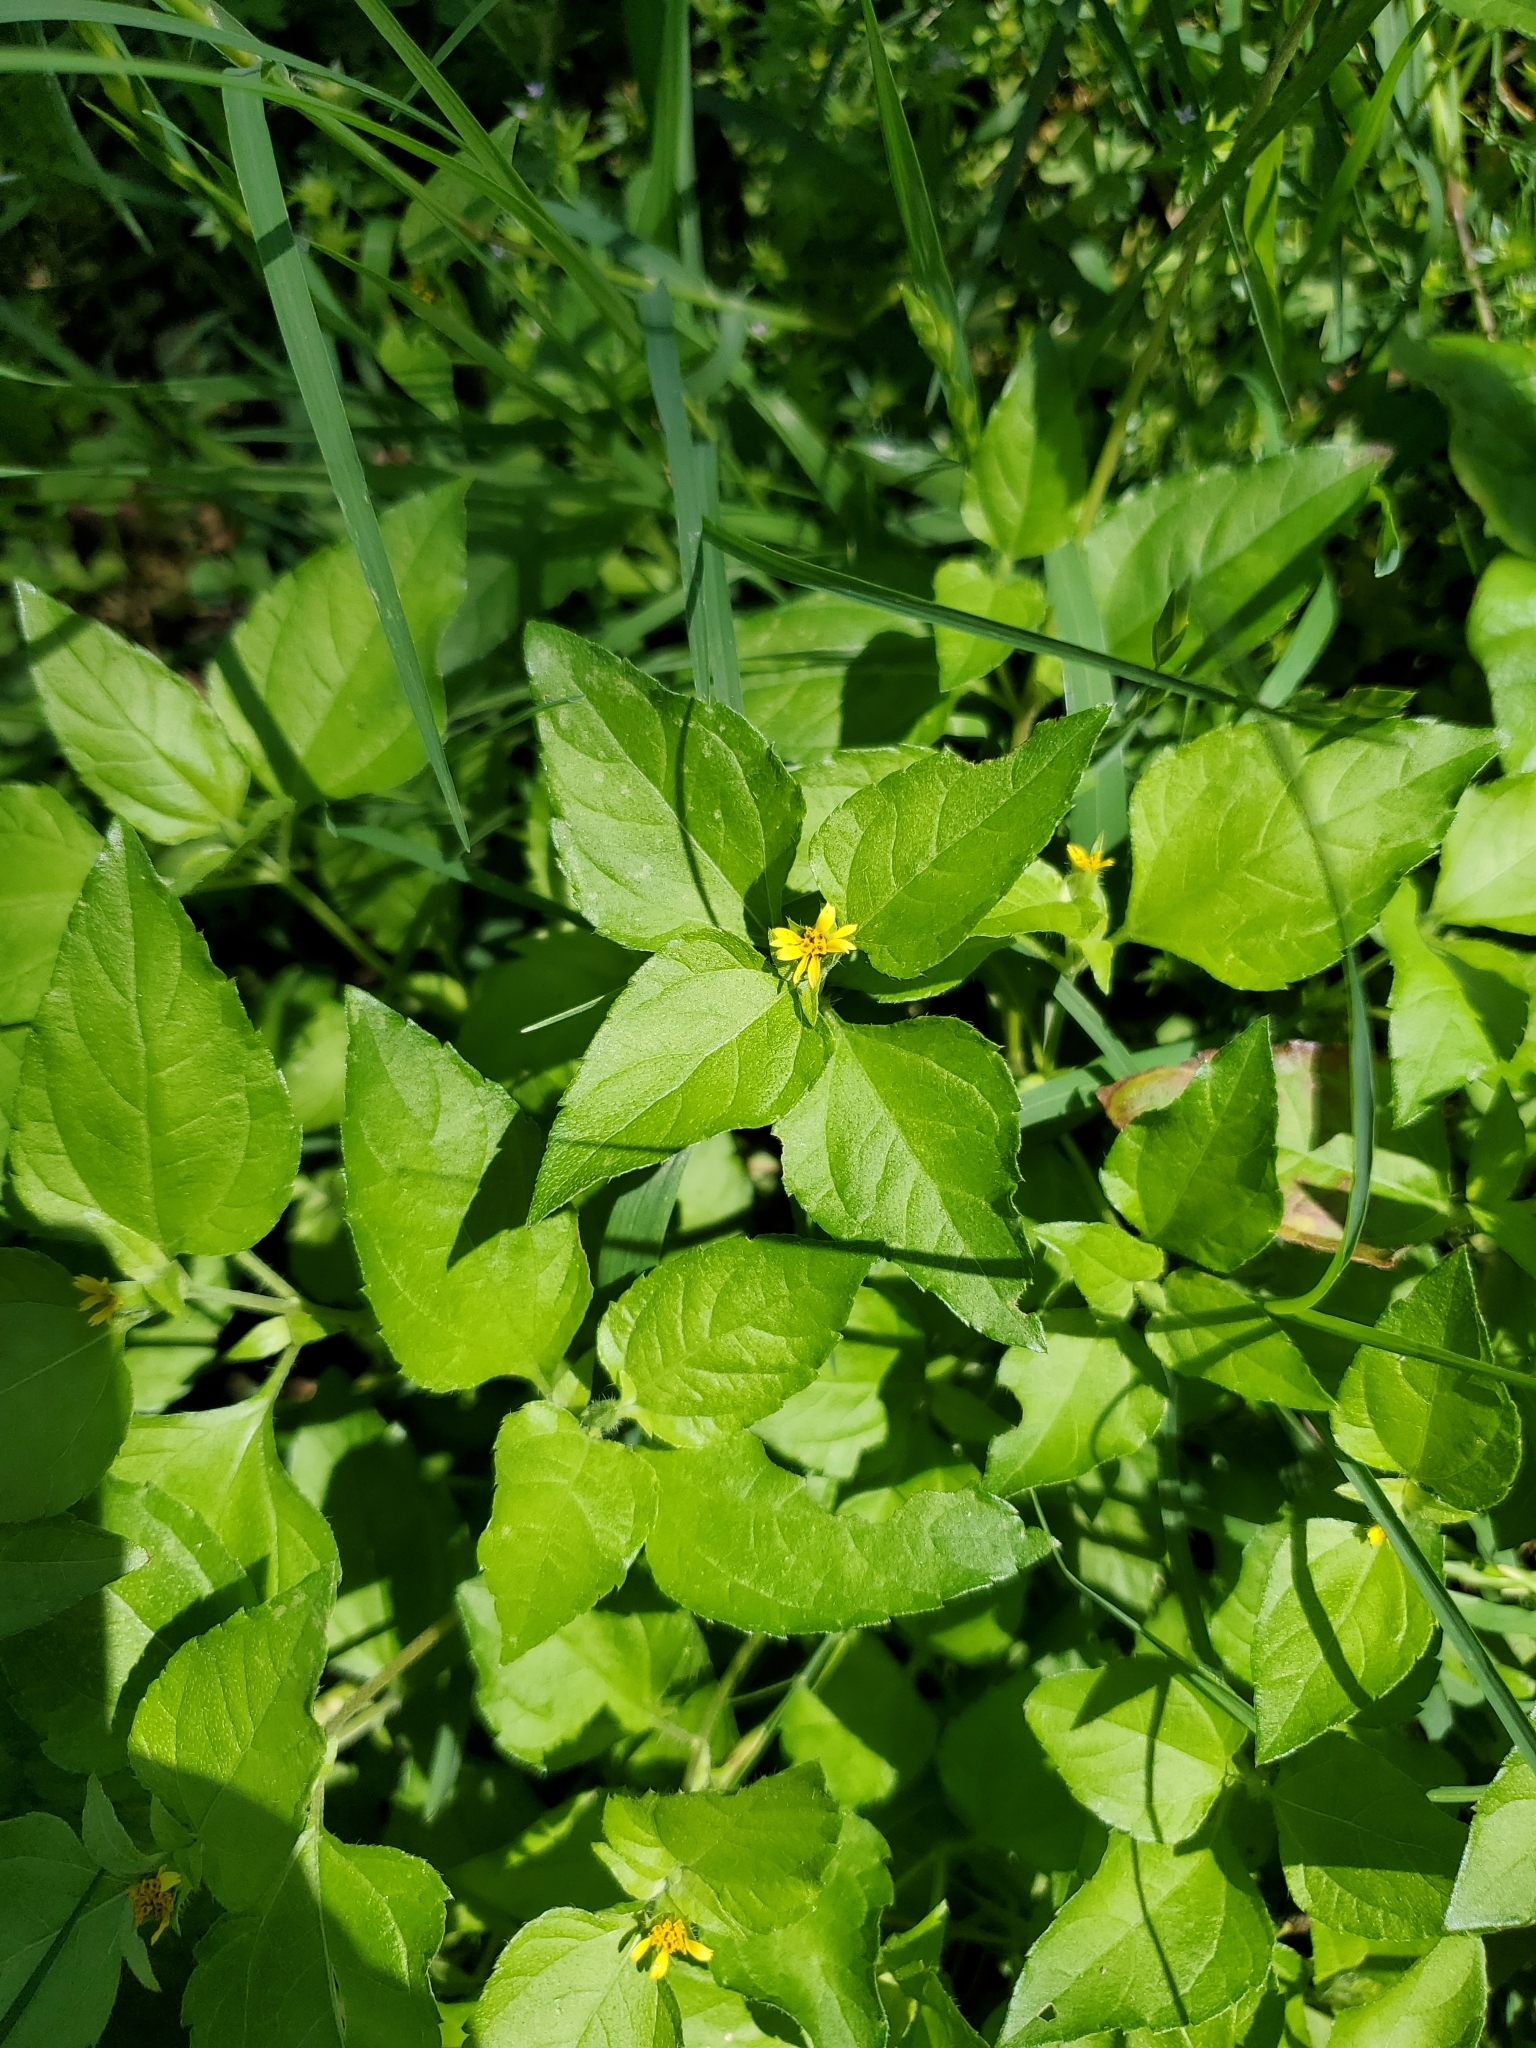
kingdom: Plantae
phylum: Tracheophyta
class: Magnoliopsida
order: Asterales
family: Asteraceae
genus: Calyptocarpus
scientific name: Calyptocarpus vialis
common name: Straggler daisy
